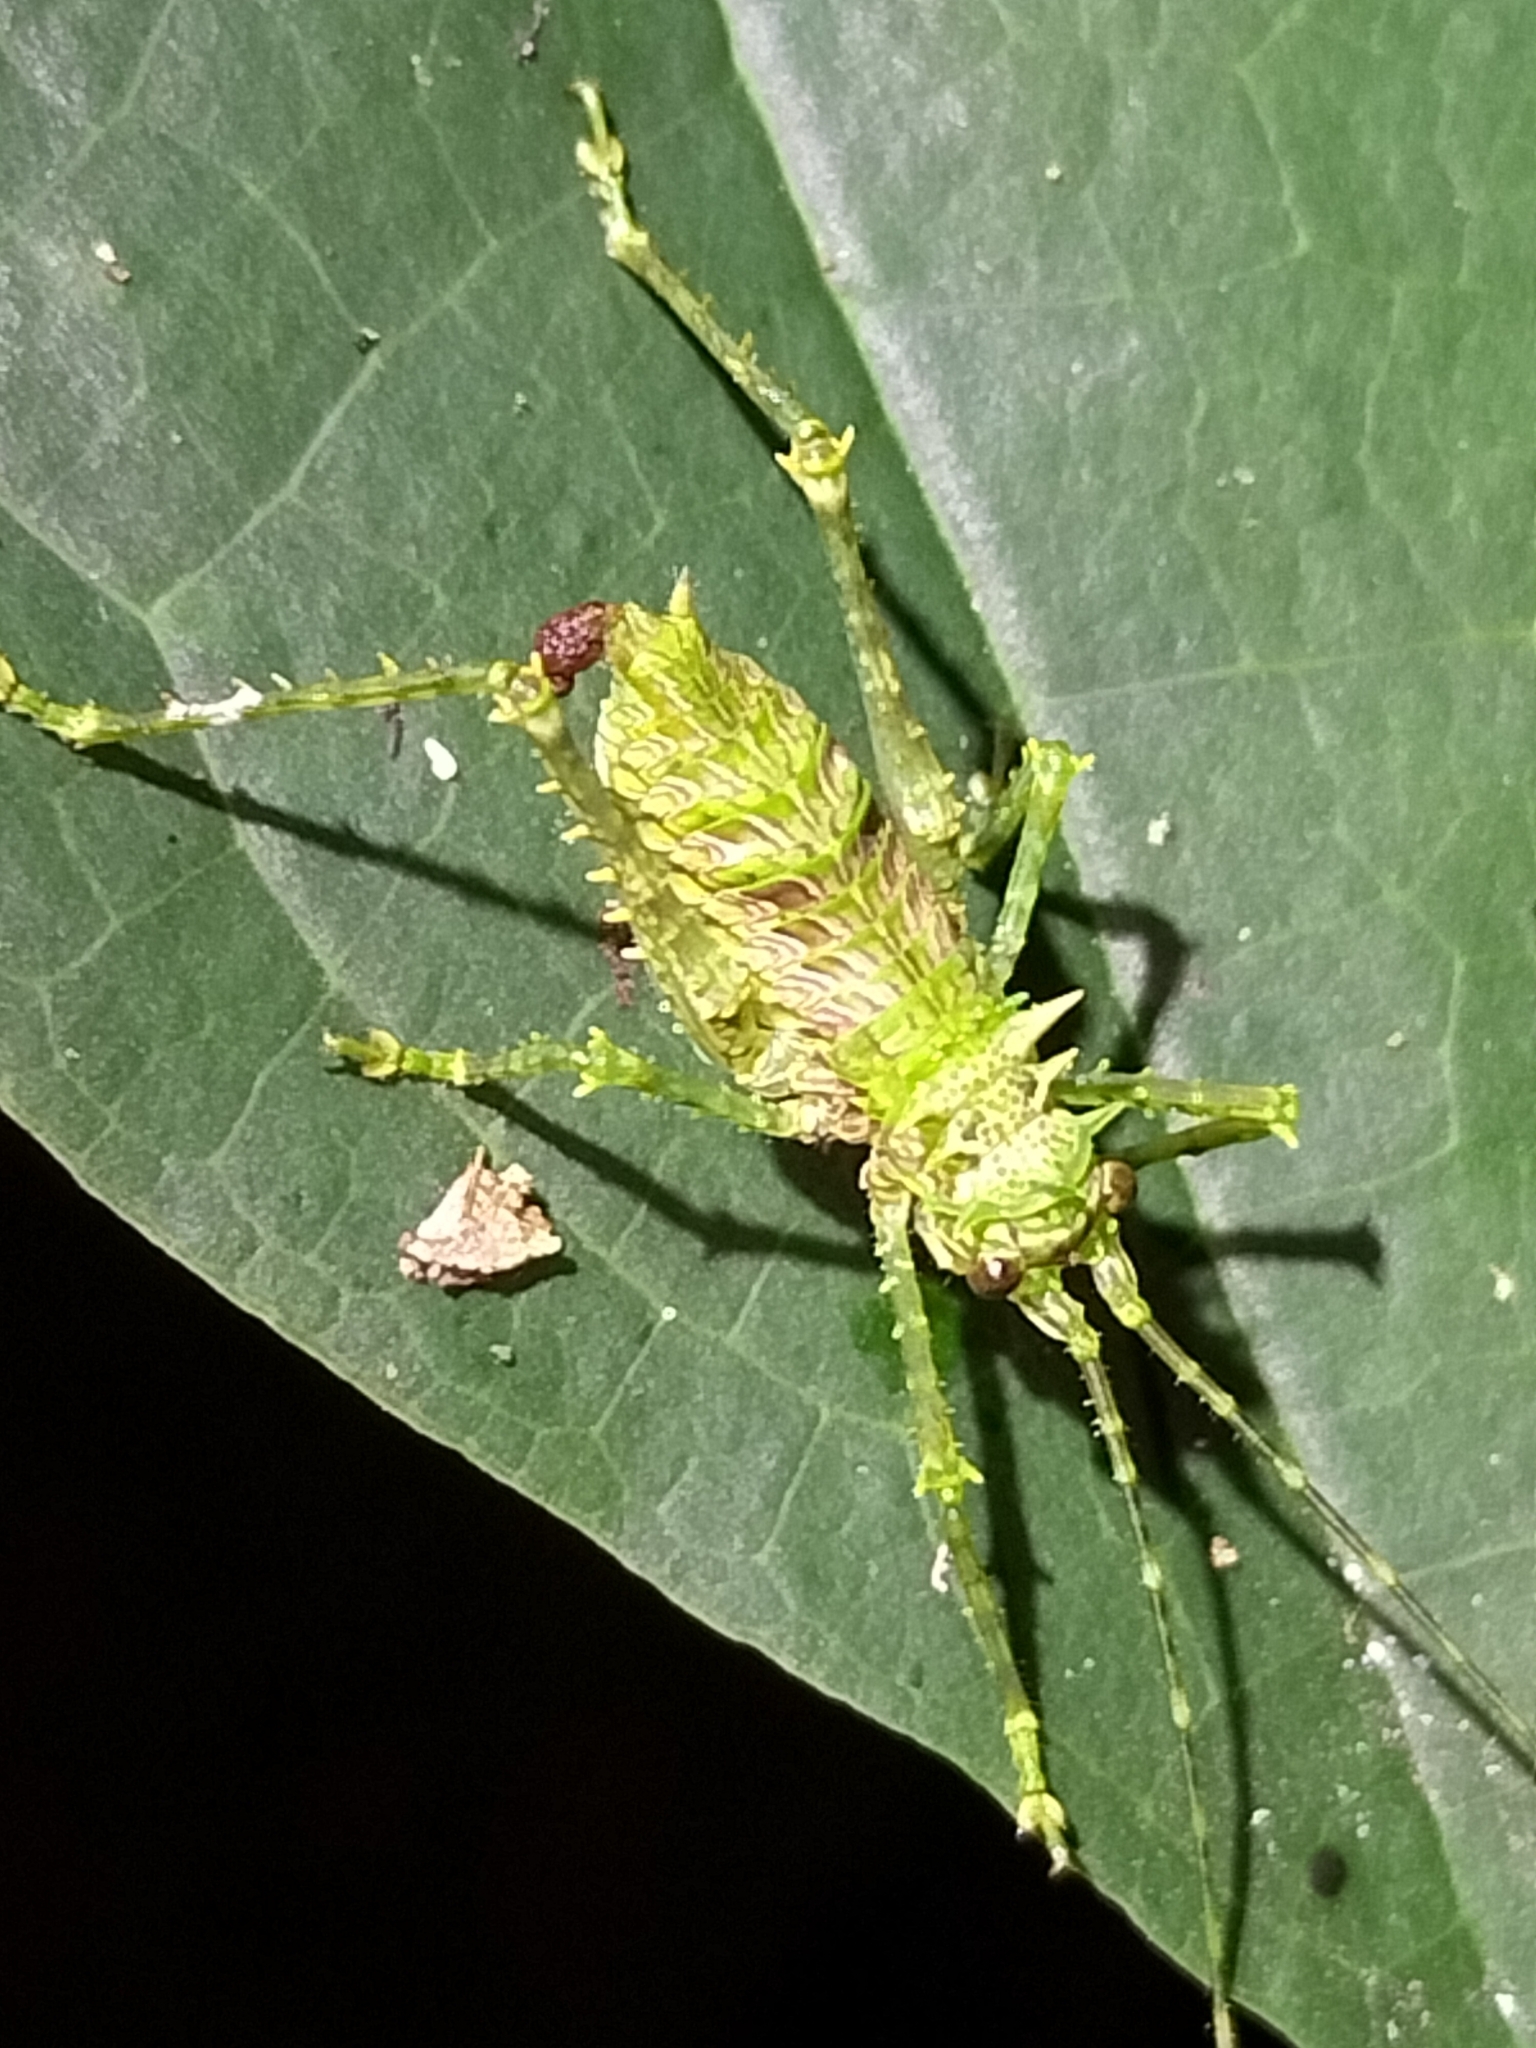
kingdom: Animalia
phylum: Arthropoda
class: Insecta
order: Orthoptera
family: Tettigoniidae
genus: Phricta
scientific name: Phricta tortuwallina
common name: Silent spiny katydid
